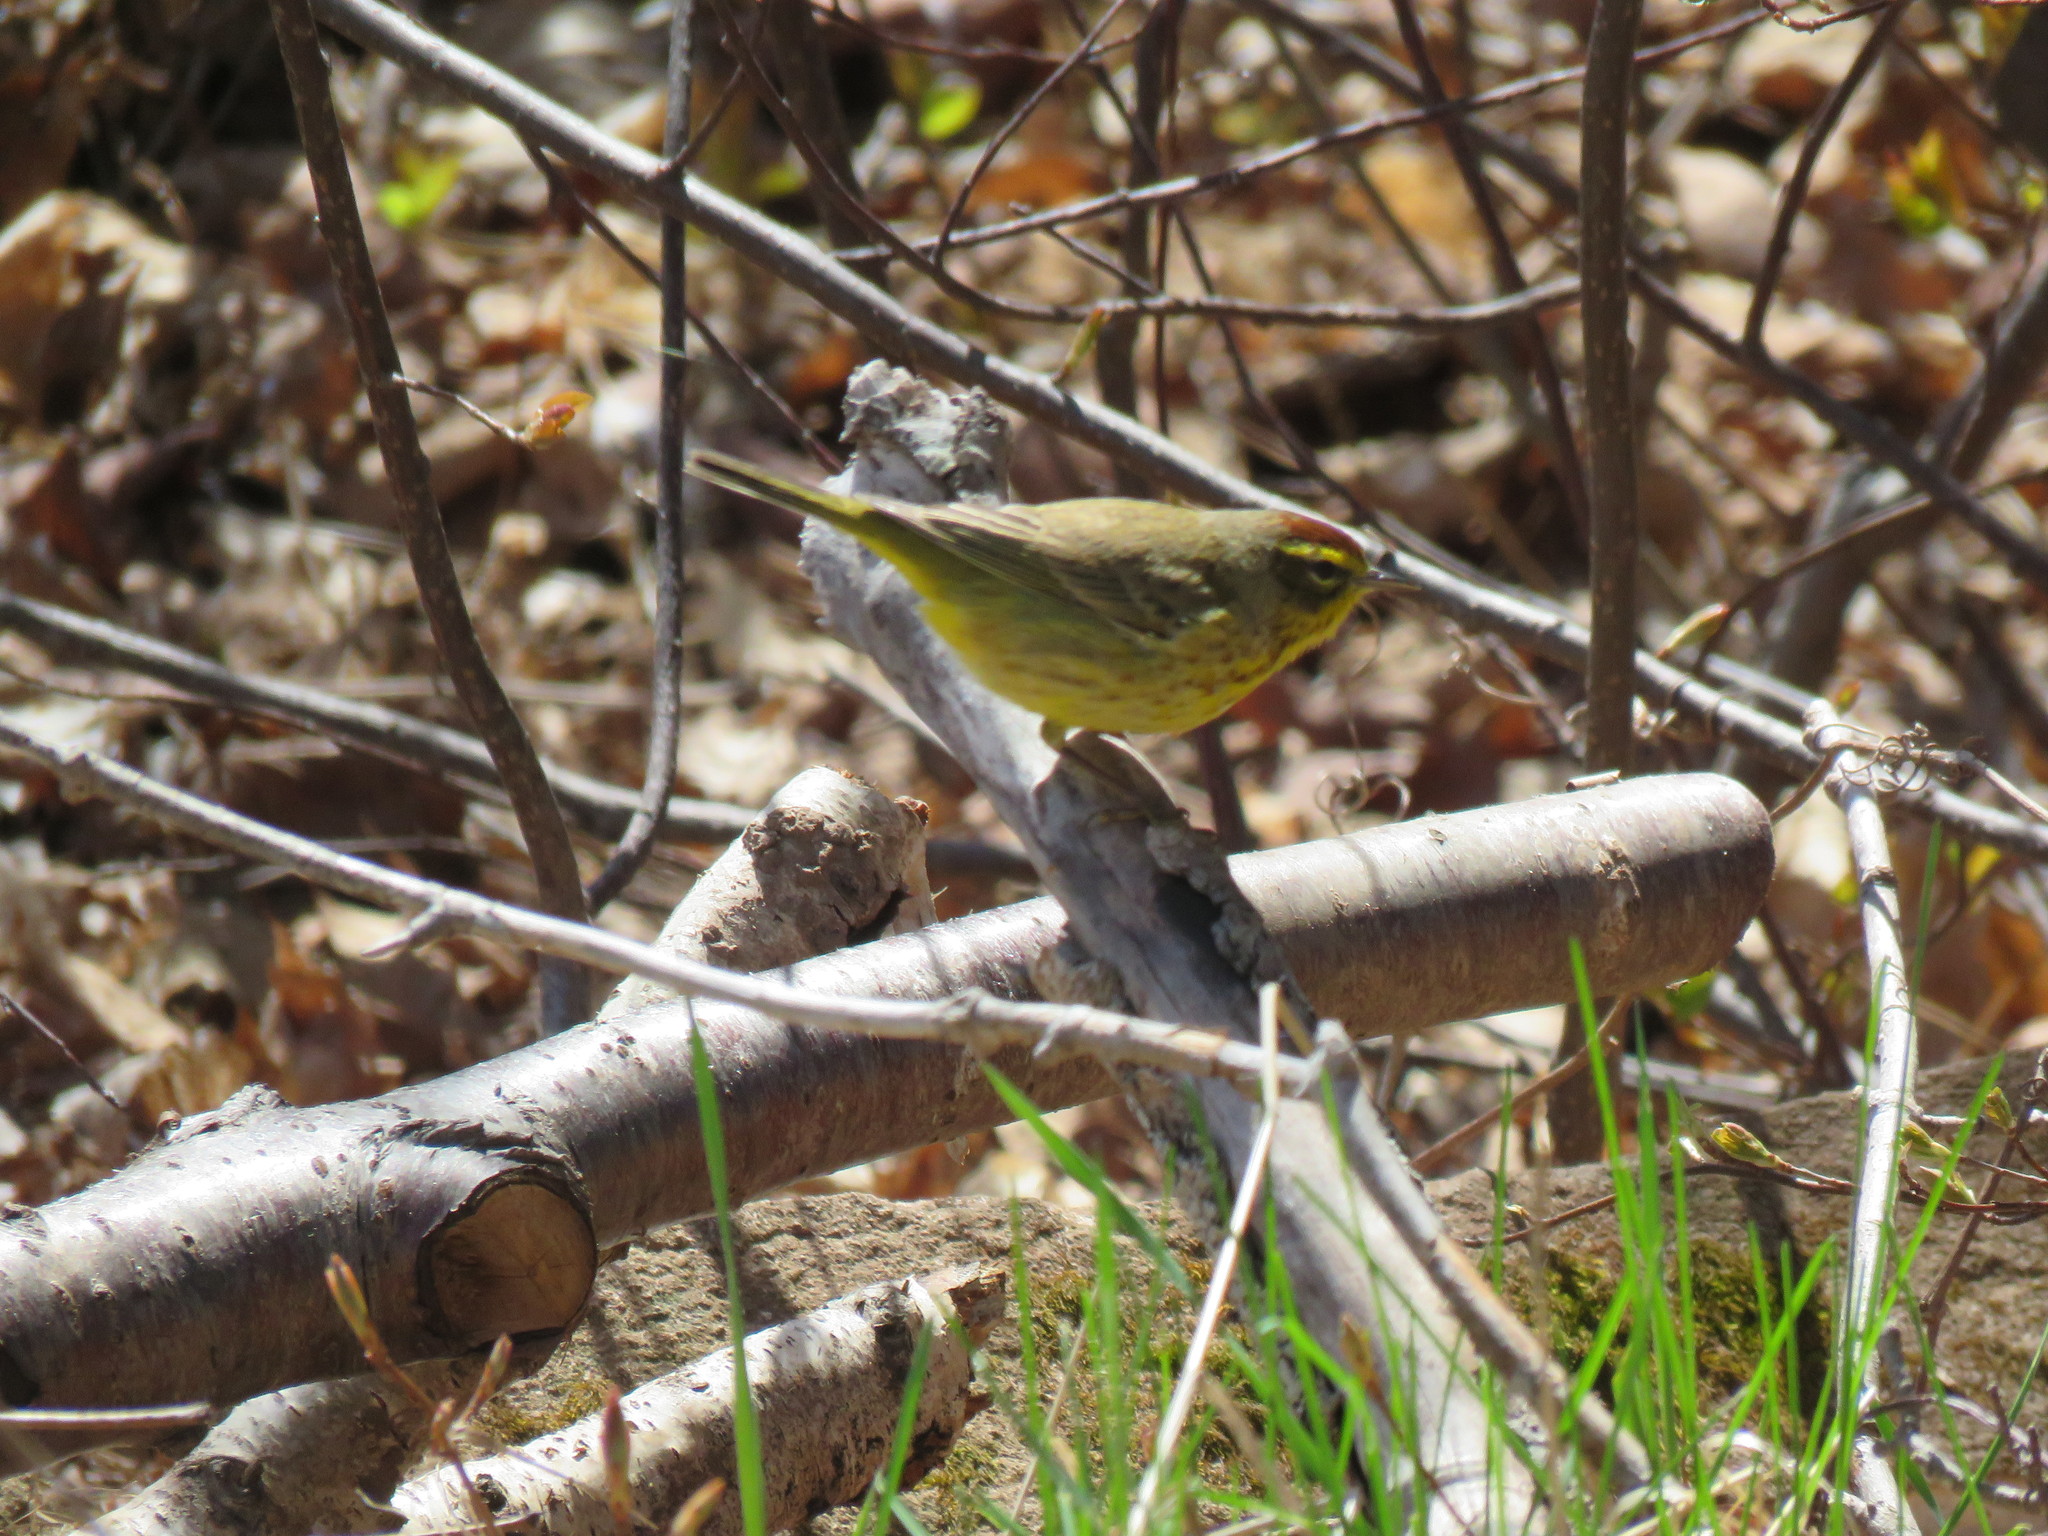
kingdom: Animalia
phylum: Chordata
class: Aves
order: Passeriformes
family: Parulidae
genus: Setophaga
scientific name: Setophaga palmarum
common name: Palm warbler
